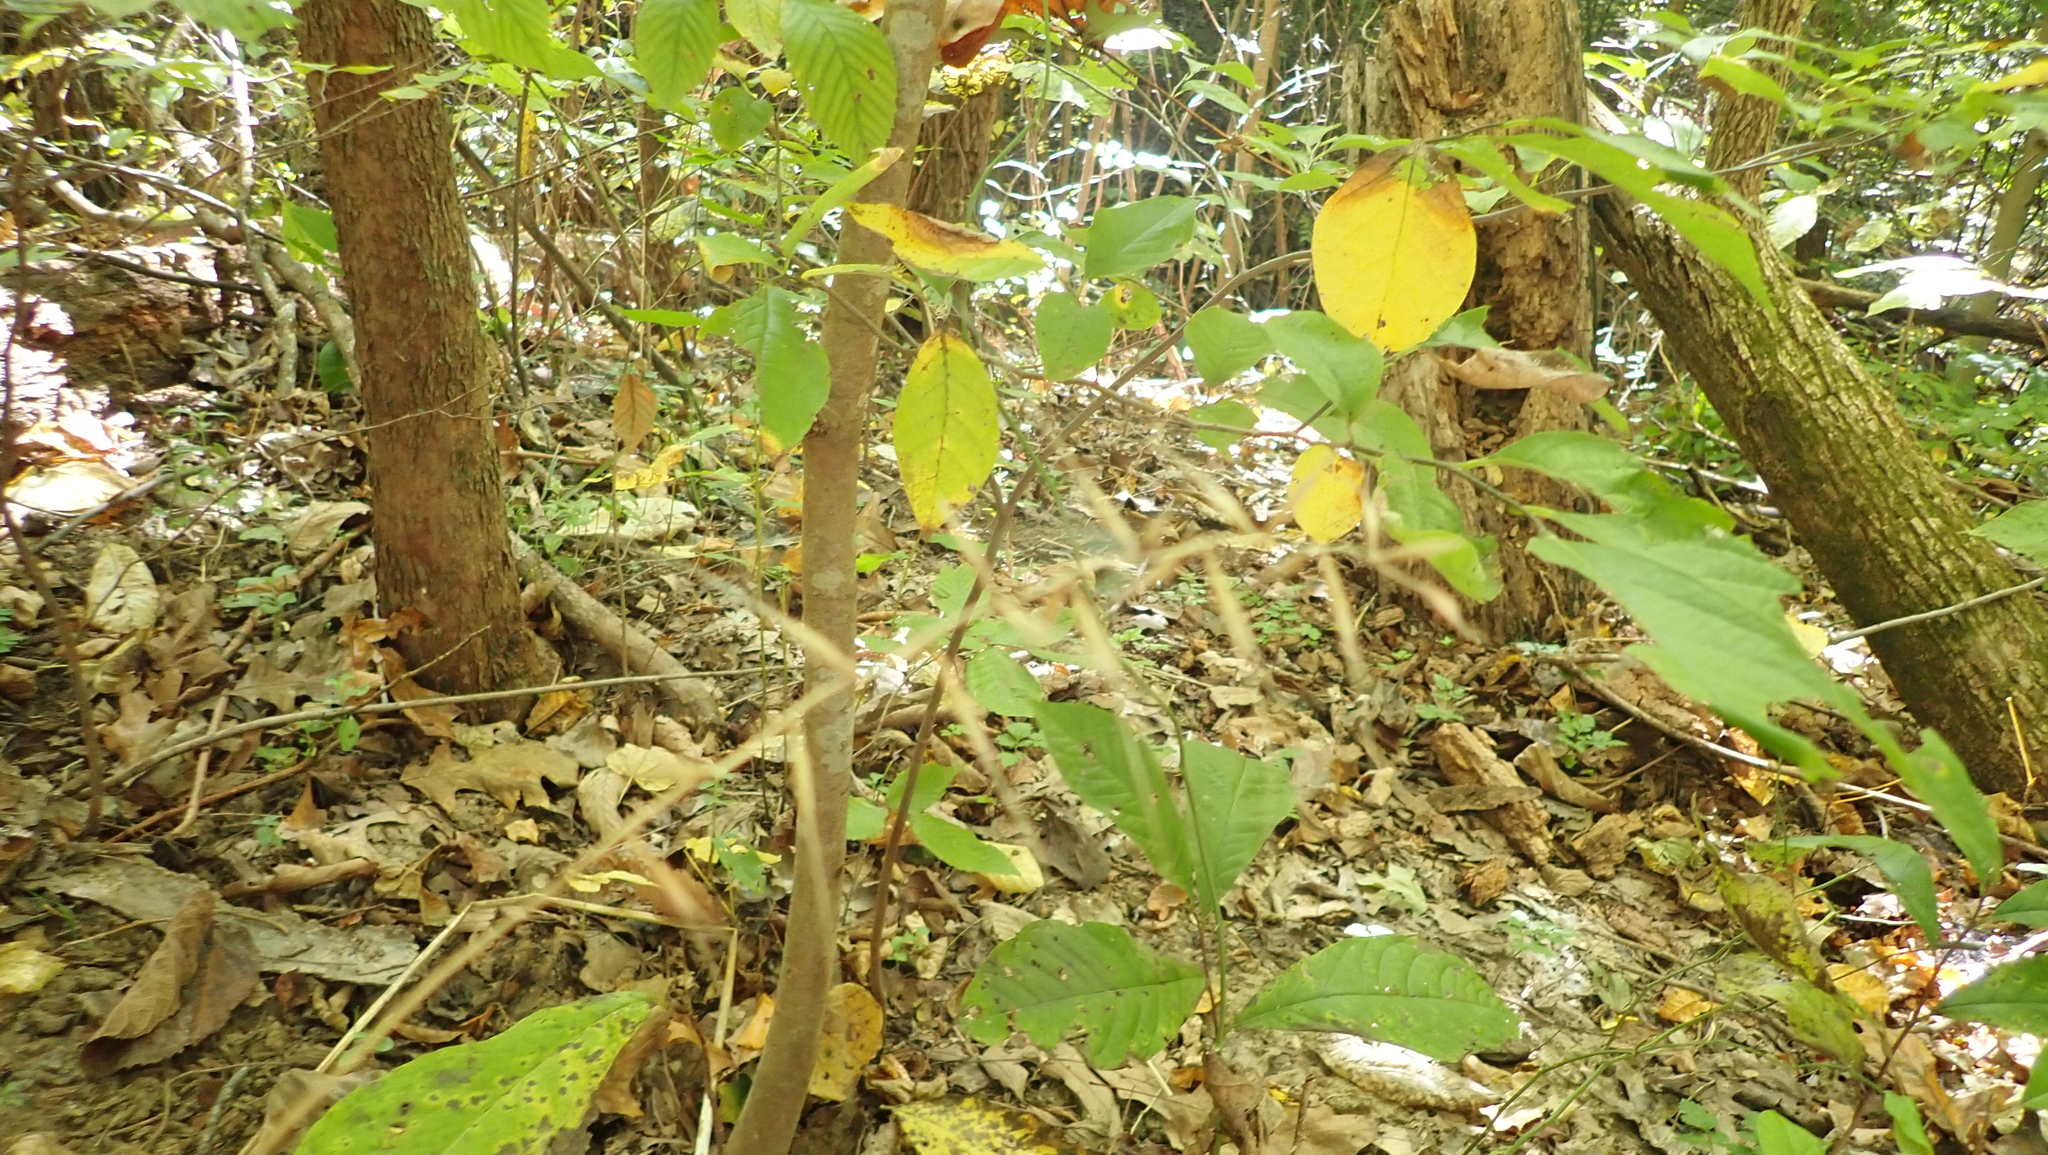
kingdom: Plantae
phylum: Tracheophyta
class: Liliopsida
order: Poales
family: Poaceae
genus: Elymus
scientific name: Elymus hystrix
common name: Bottlebrush grass
